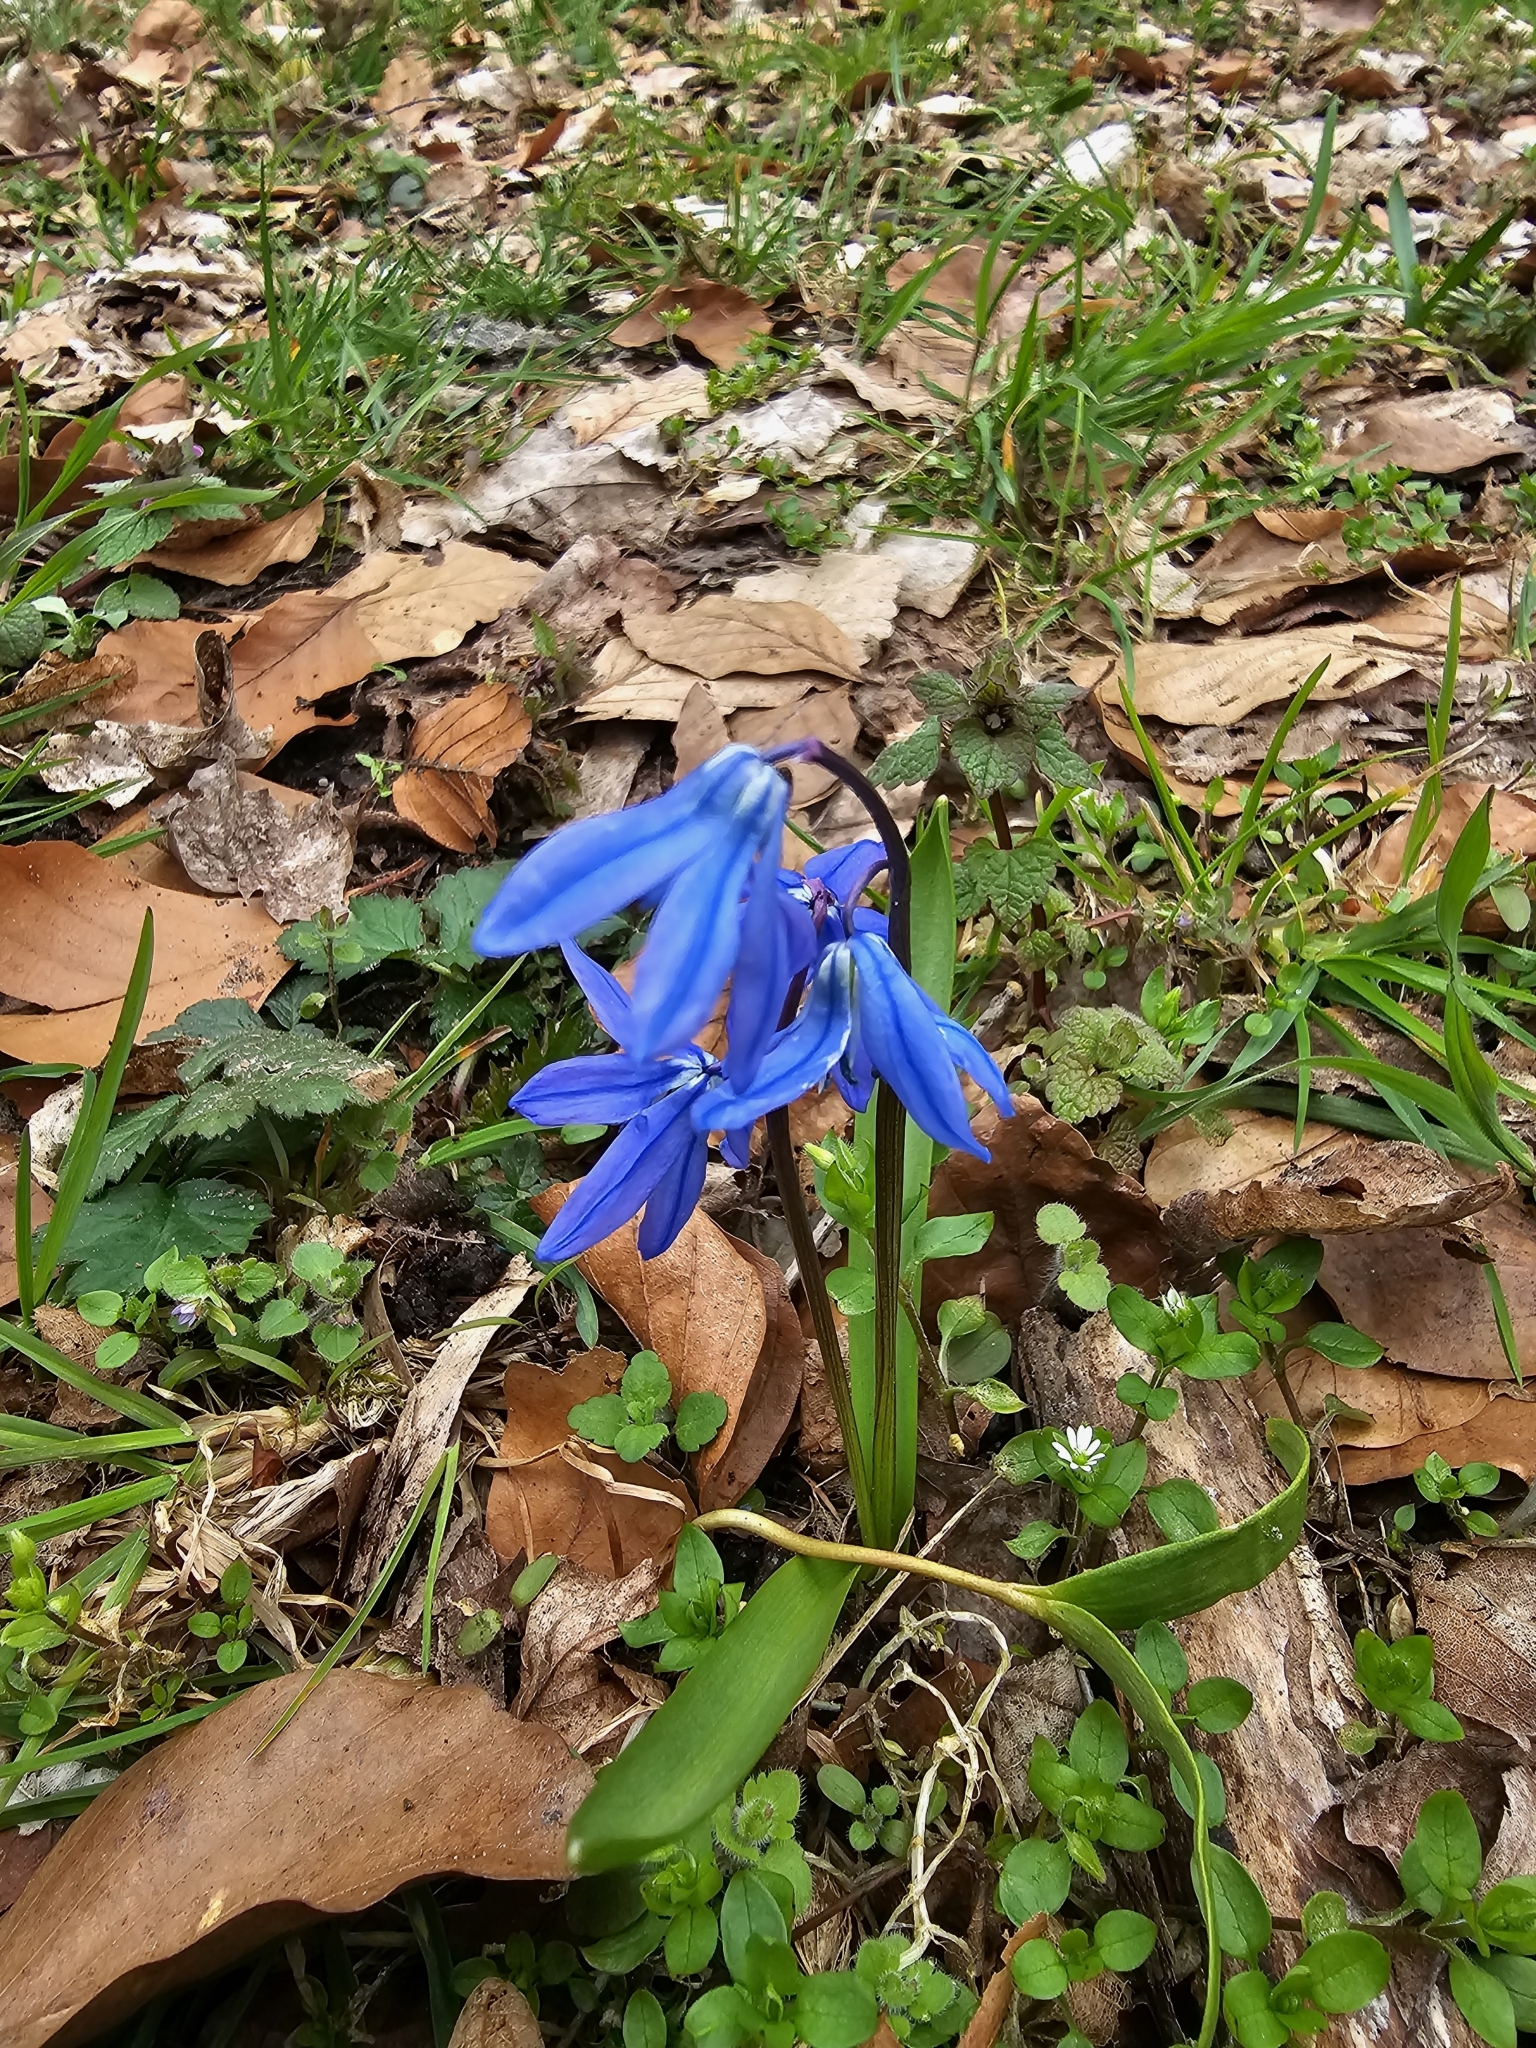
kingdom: Plantae
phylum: Tracheophyta
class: Liliopsida
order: Asparagales
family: Asparagaceae
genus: Scilla
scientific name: Scilla siberica
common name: Siberian squill
